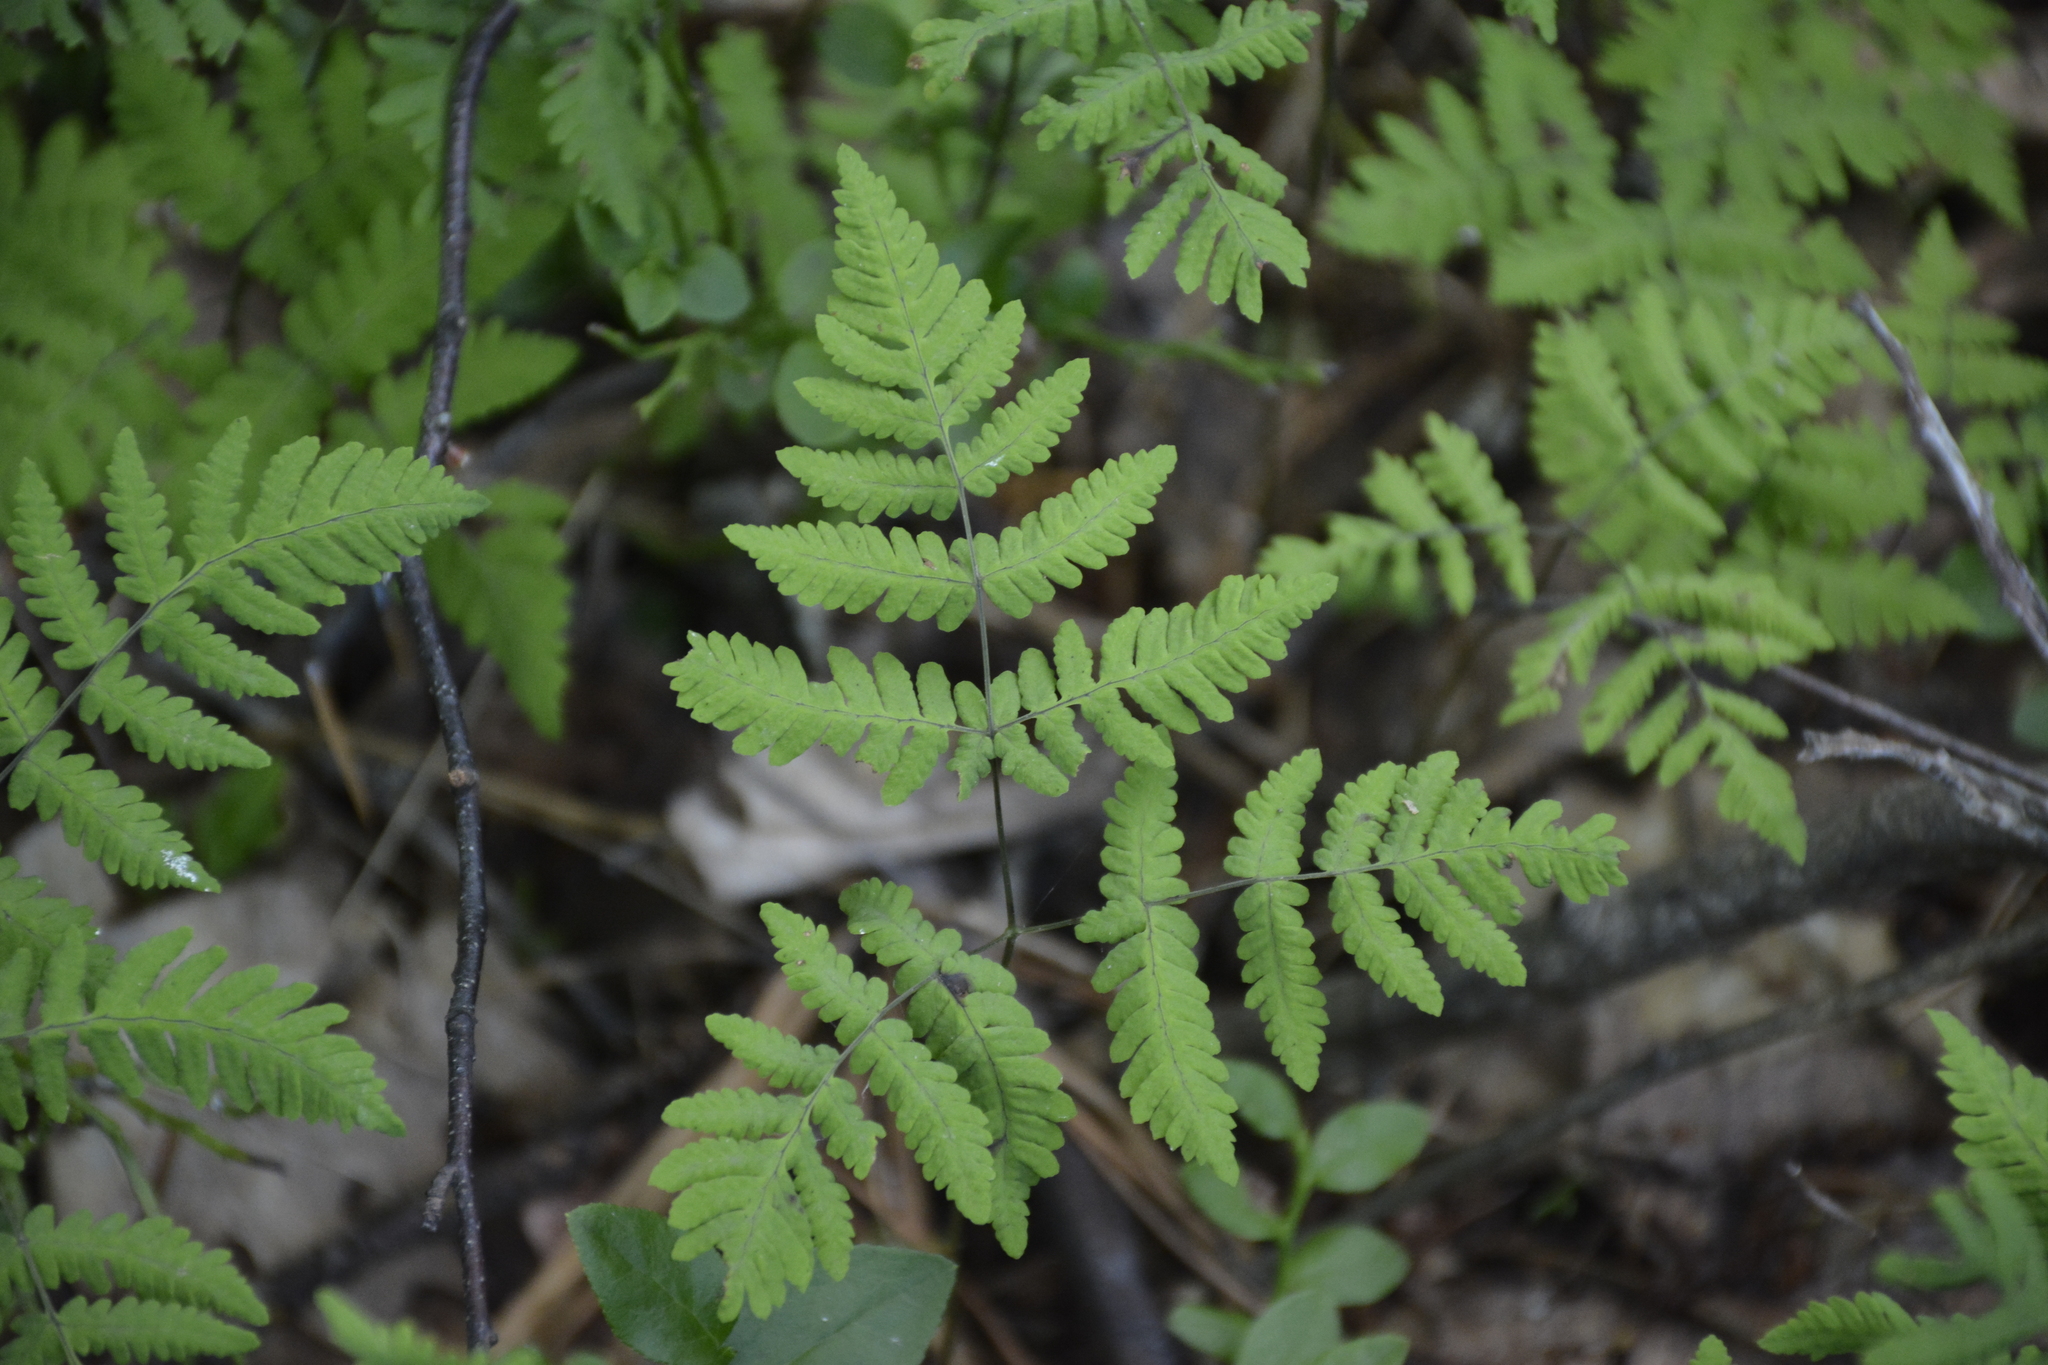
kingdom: Plantae
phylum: Tracheophyta
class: Polypodiopsida
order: Polypodiales
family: Cystopteridaceae
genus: Gymnocarpium
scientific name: Gymnocarpium dryopteris
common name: Oak fern
